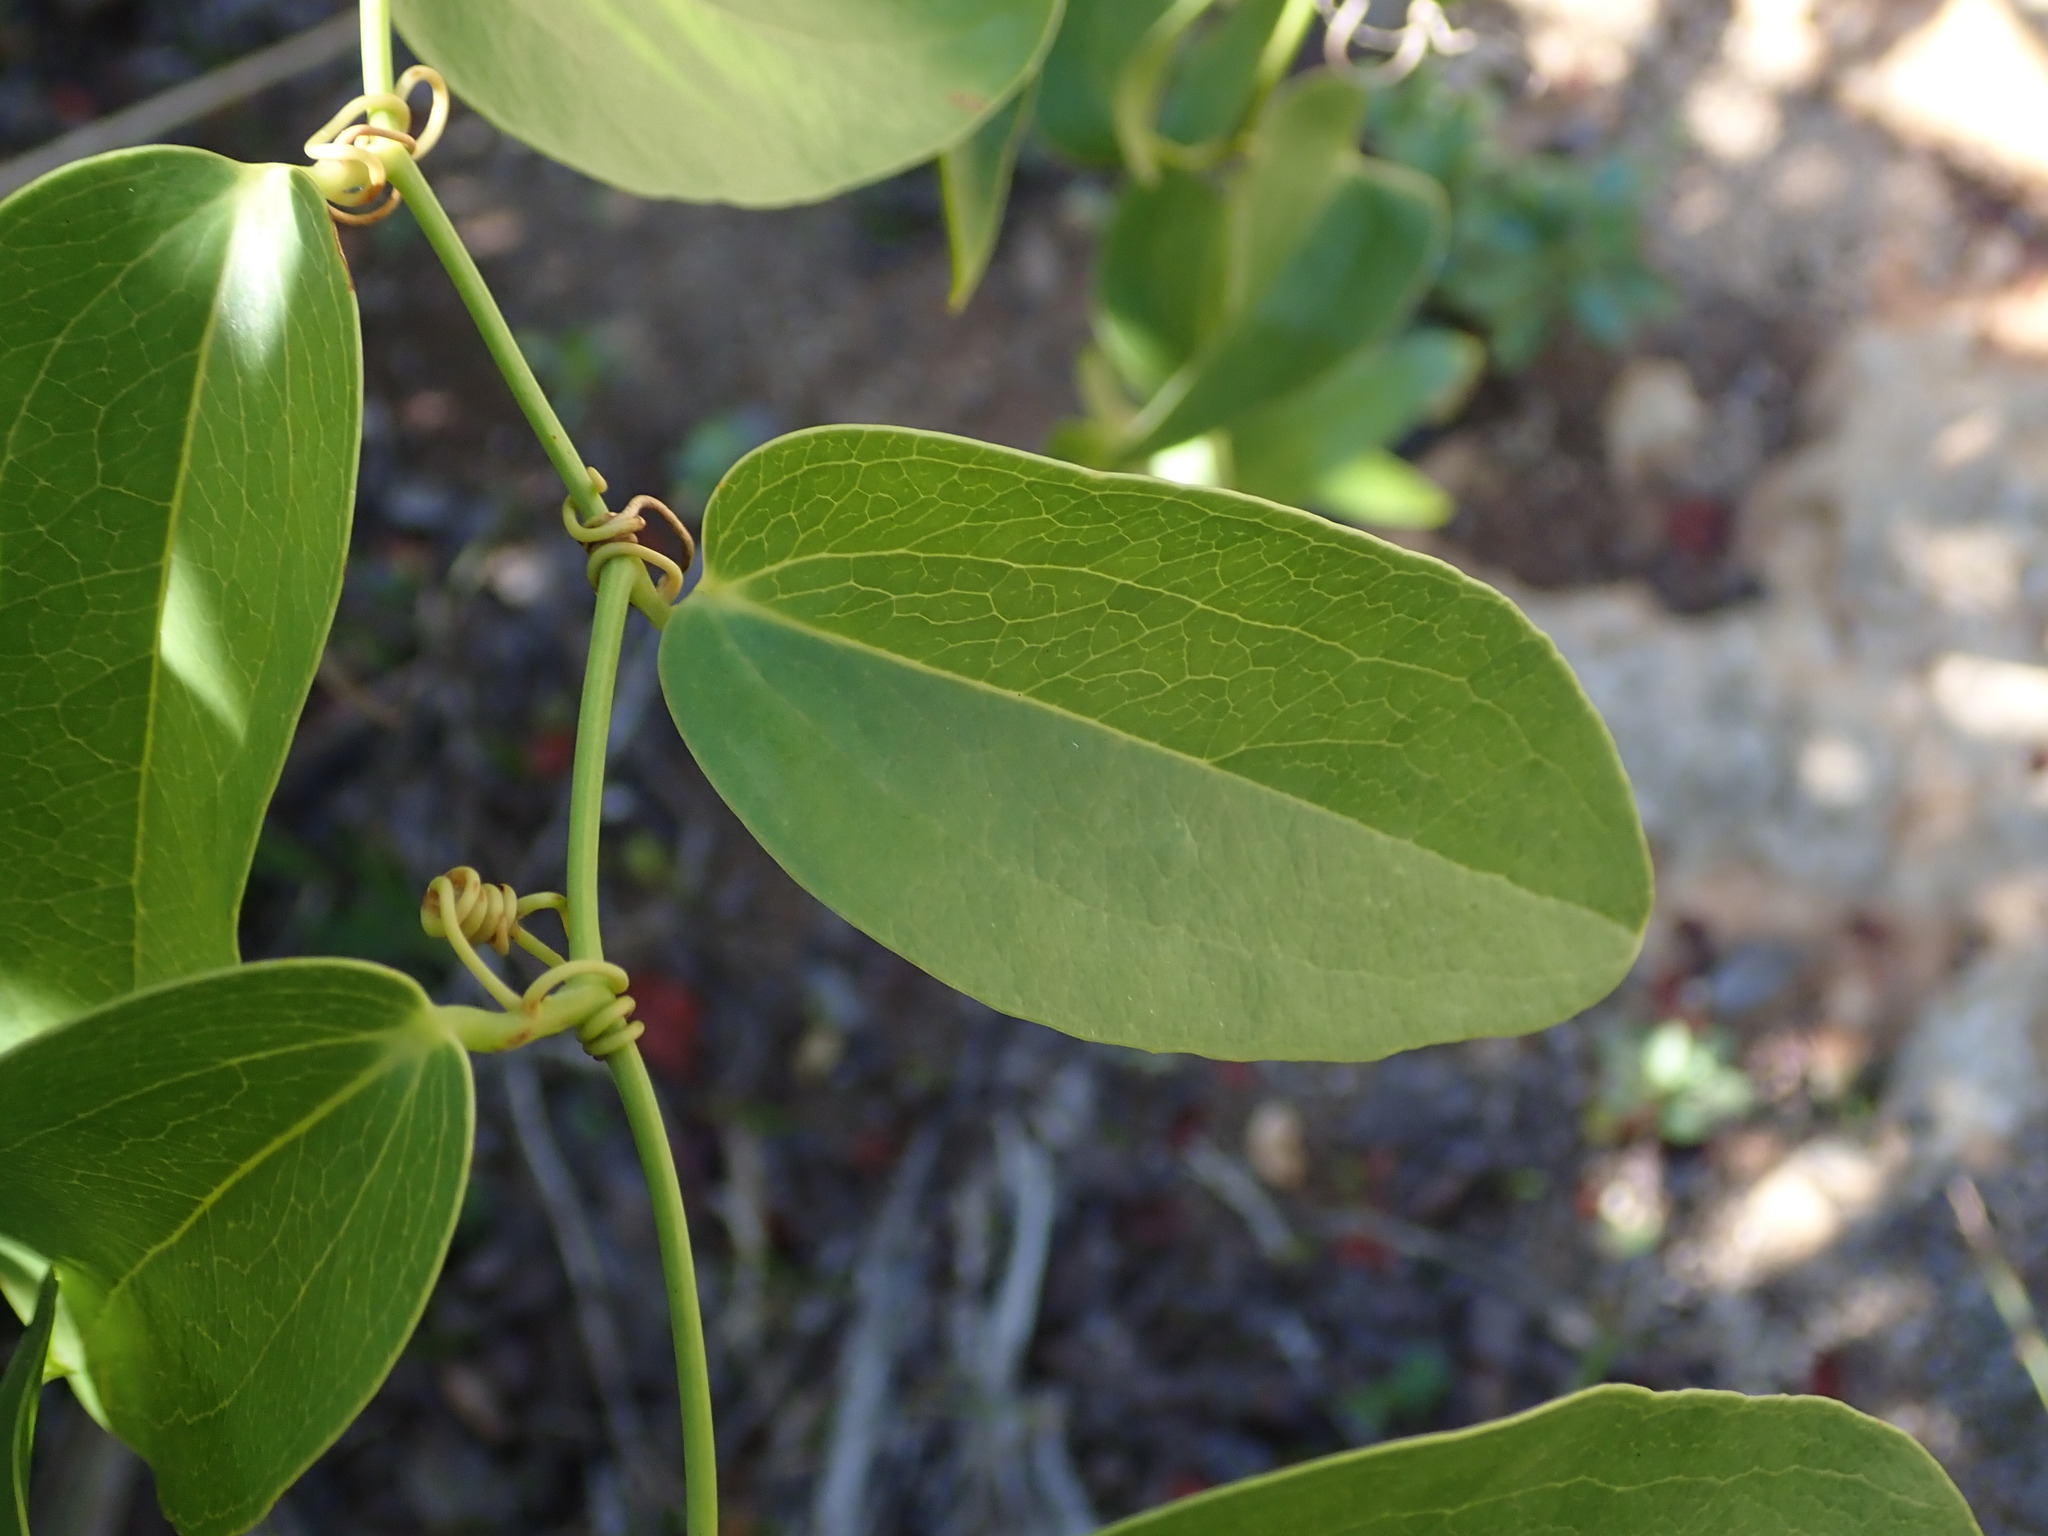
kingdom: Plantae
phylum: Tracheophyta
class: Liliopsida
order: Liliales
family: Smilacaceae
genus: Smilax
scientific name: Smilax coriacea
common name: White withe
